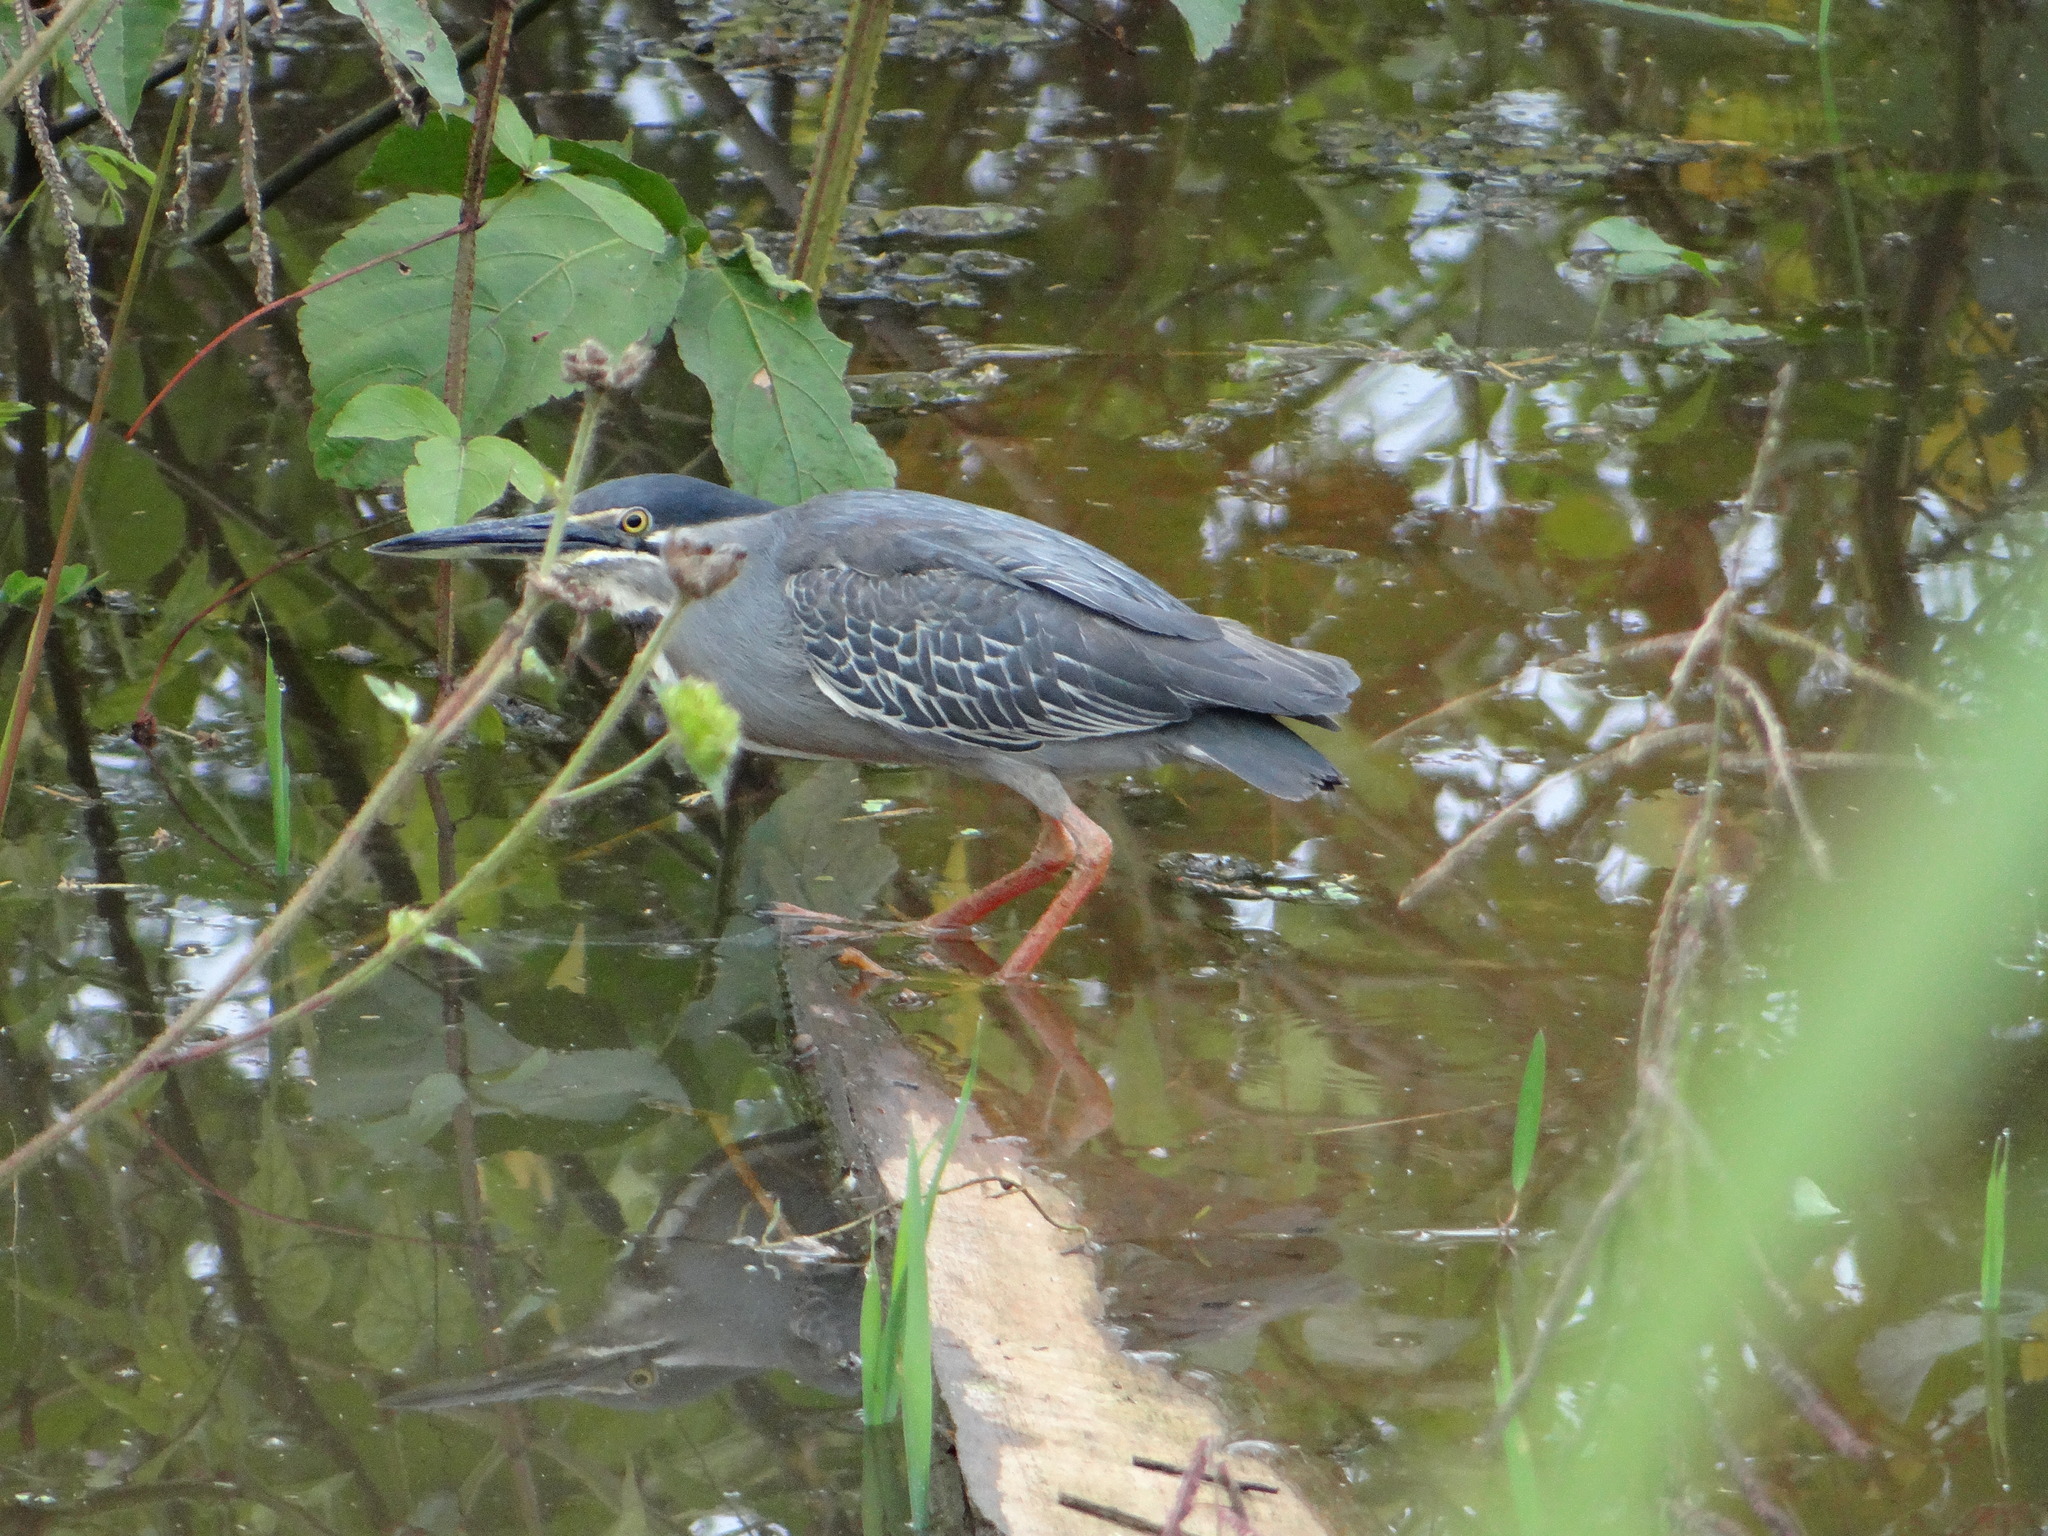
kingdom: Animalia
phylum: Chordata
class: Aves
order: Pelecaniformes
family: Ardeidae
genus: Butorides
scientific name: Butorides striata
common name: Striated heron
